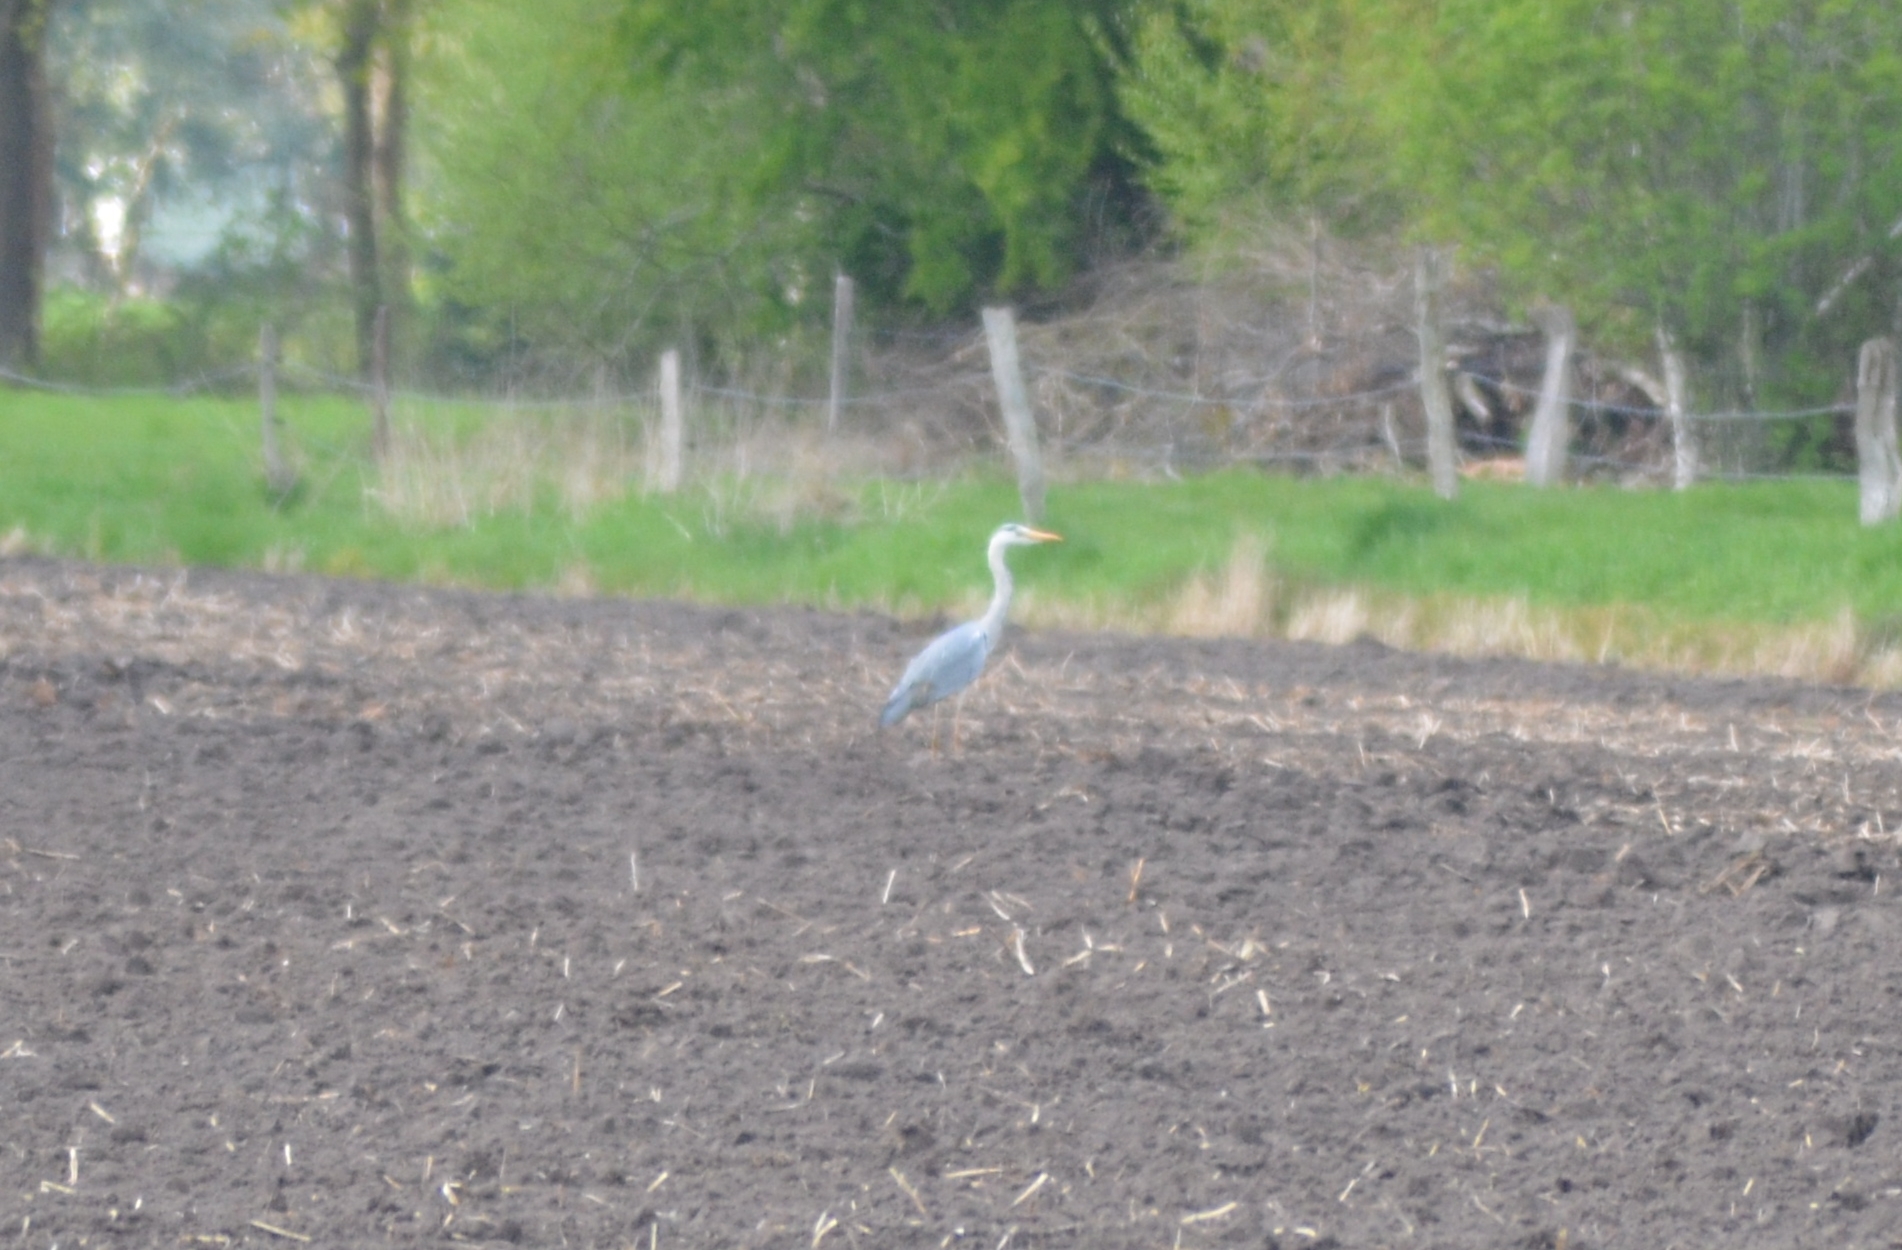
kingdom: Animalia
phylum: Chordata
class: Aves
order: Pelecaniformes
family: Ardeidae
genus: Ardea
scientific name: Ardea cinerea
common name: Grey heron
